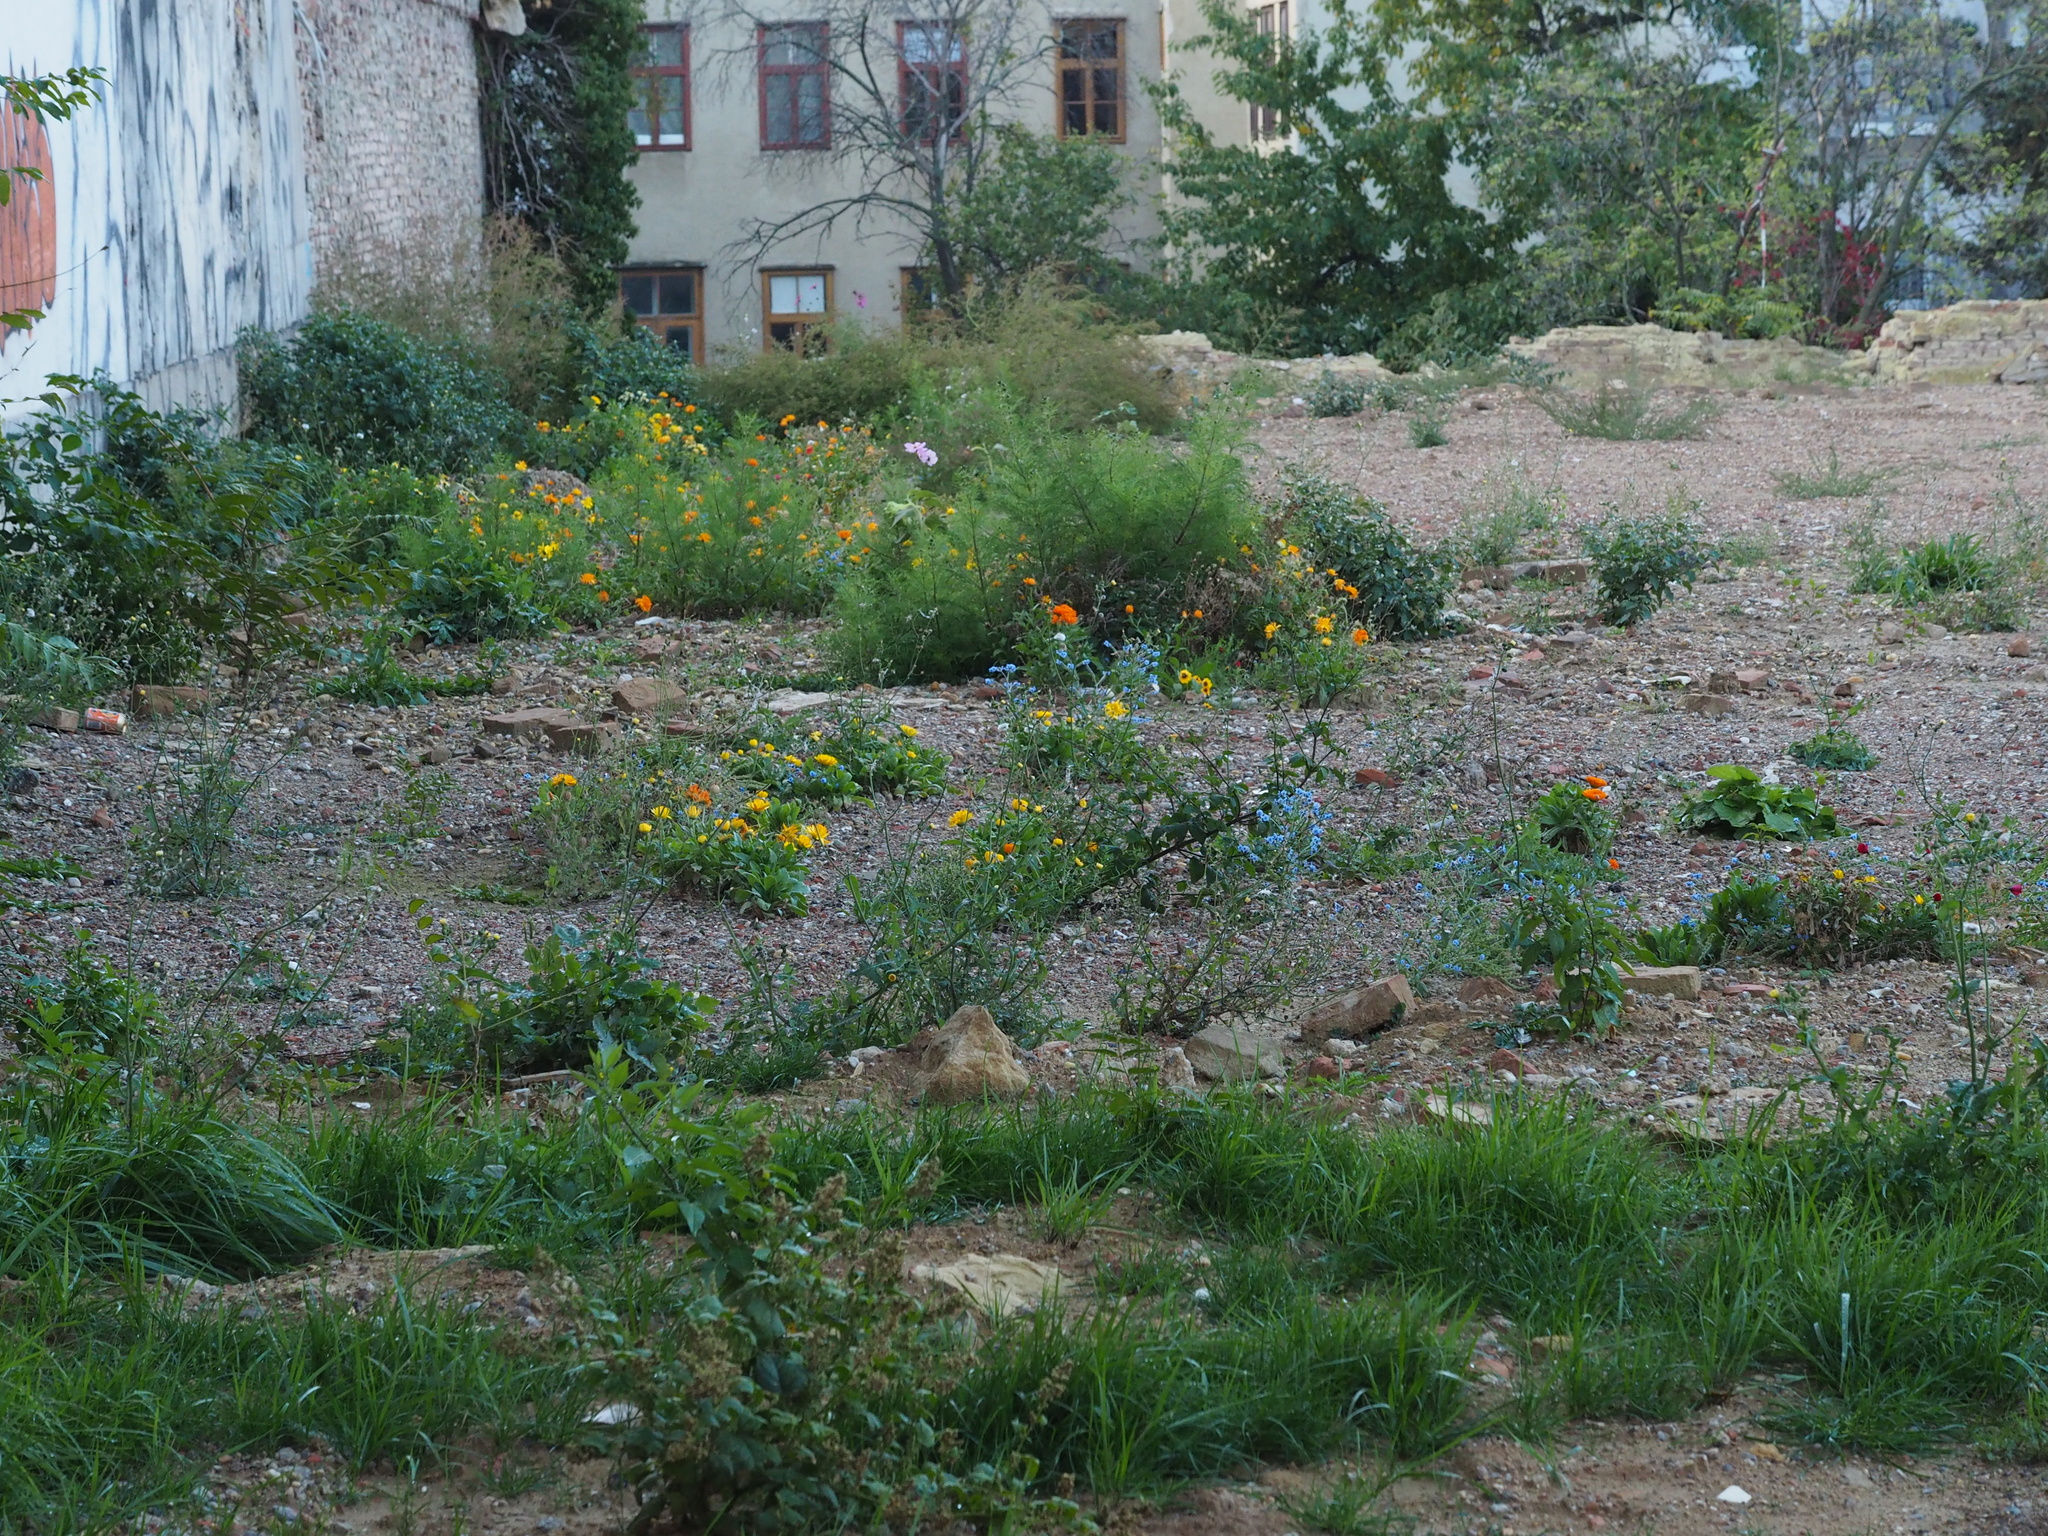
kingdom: Plantae
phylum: Tracheophyta
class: Magnoliopsida
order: Asterales
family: Asteraceae
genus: Calendula
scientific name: Calendula officinalis
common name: Pot marigold
